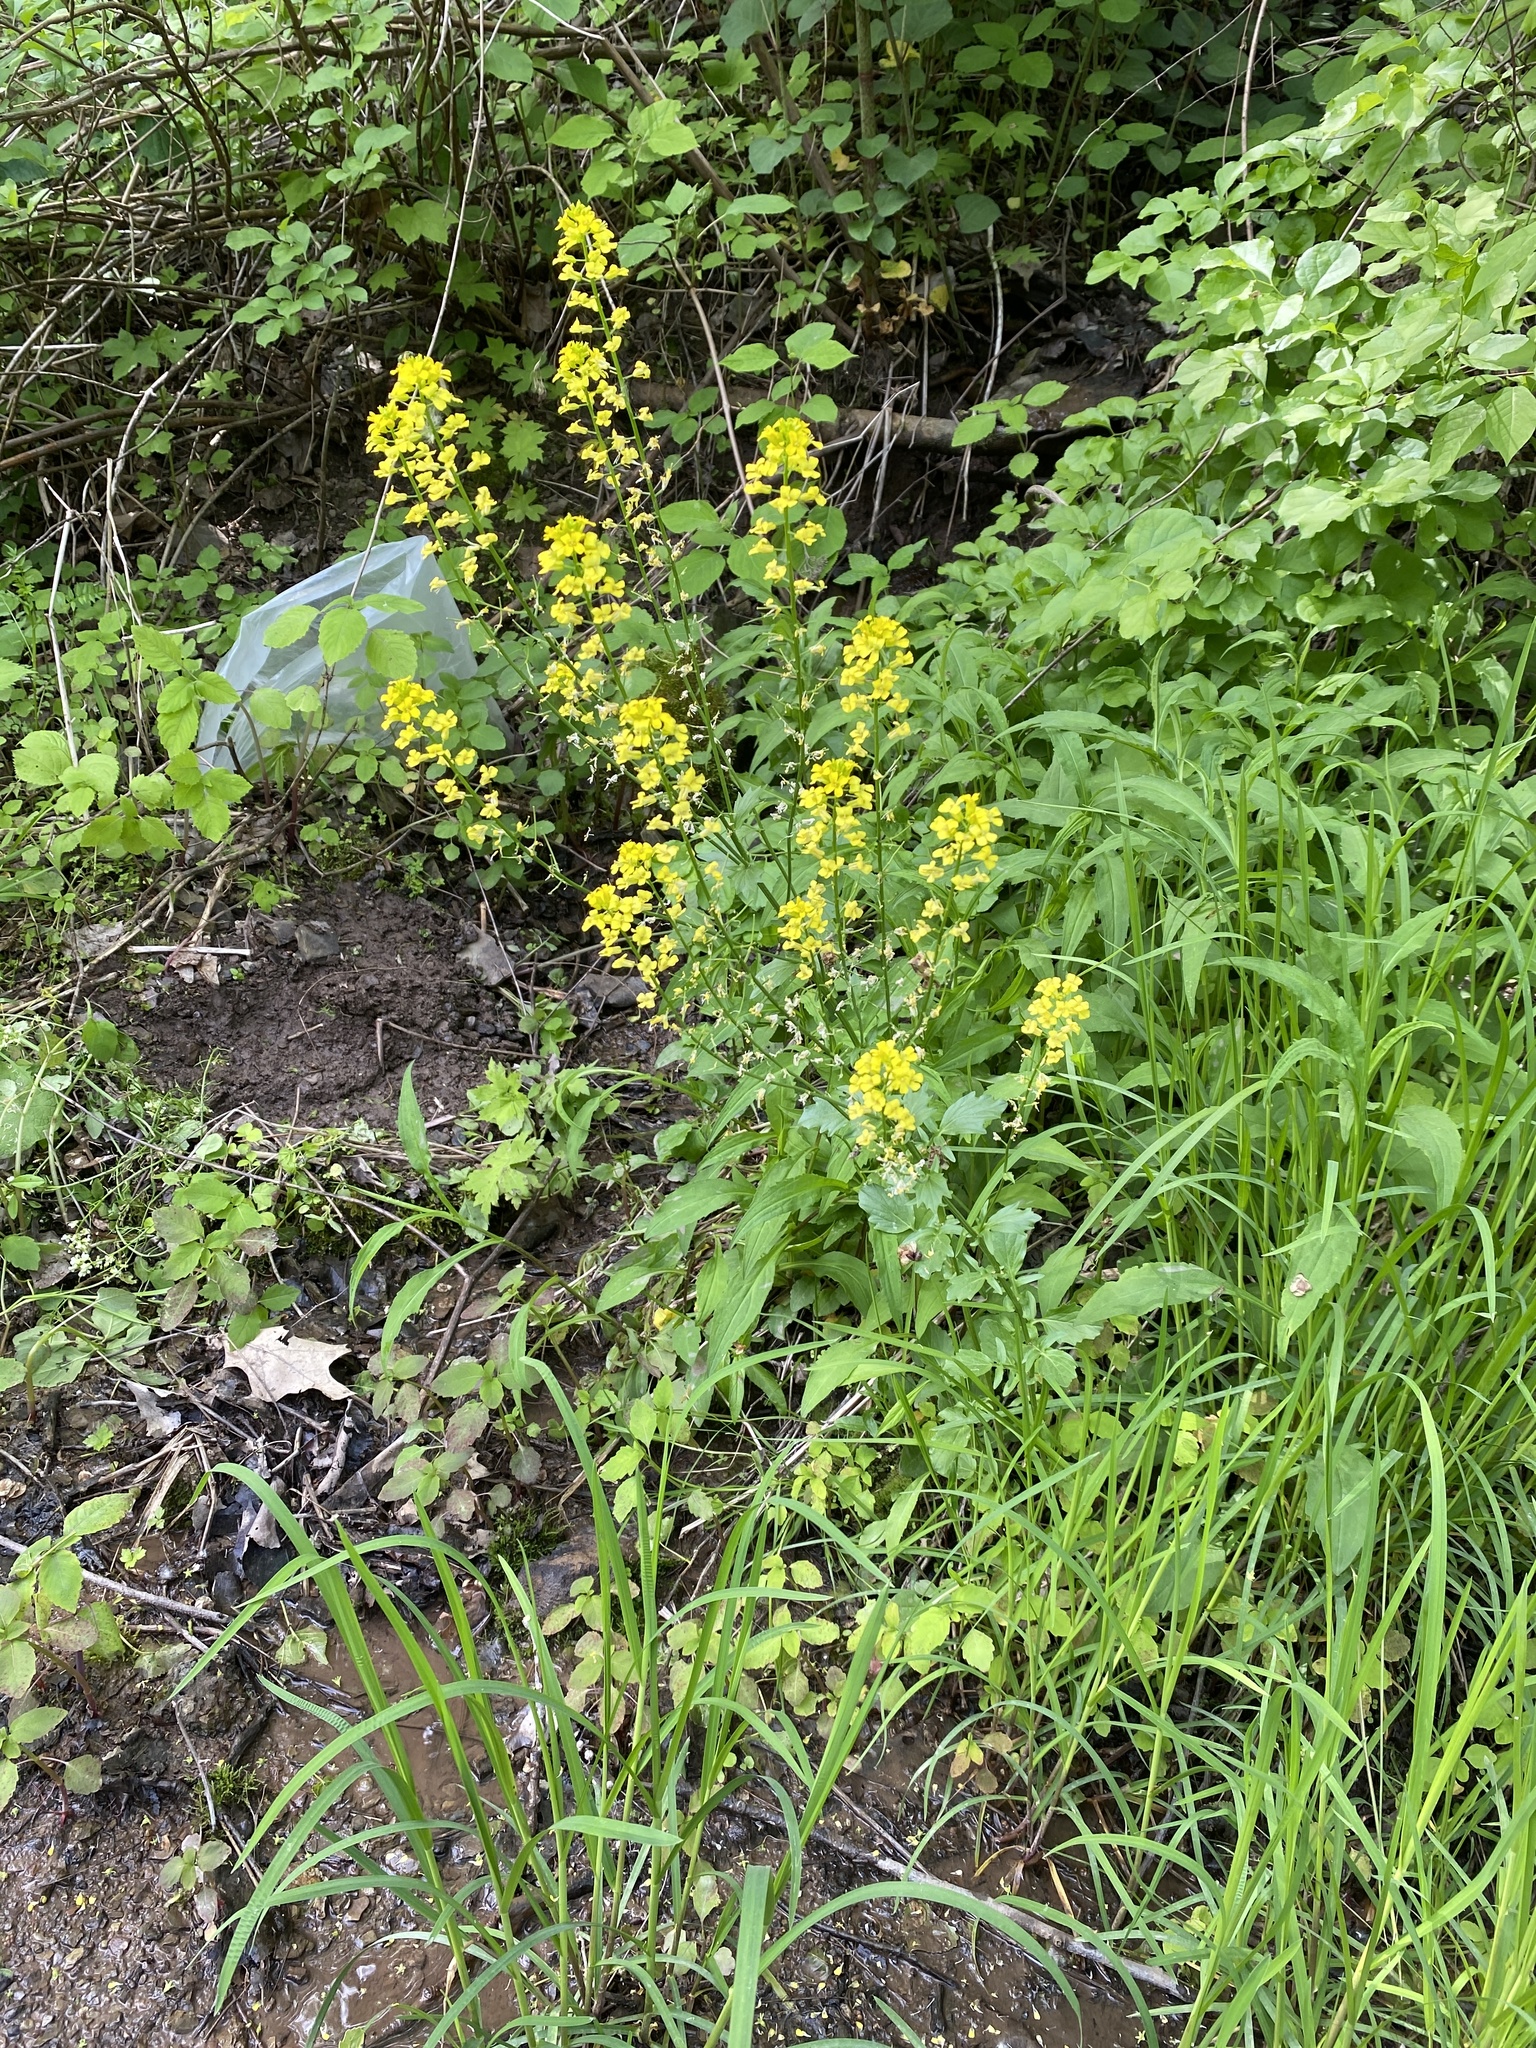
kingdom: Plantae
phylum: Tracheophyta
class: Magnoliopsida
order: Brassicales
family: Brassicaceae
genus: Barbarea
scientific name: Barbarea vulgaris
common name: Cressy-greens
